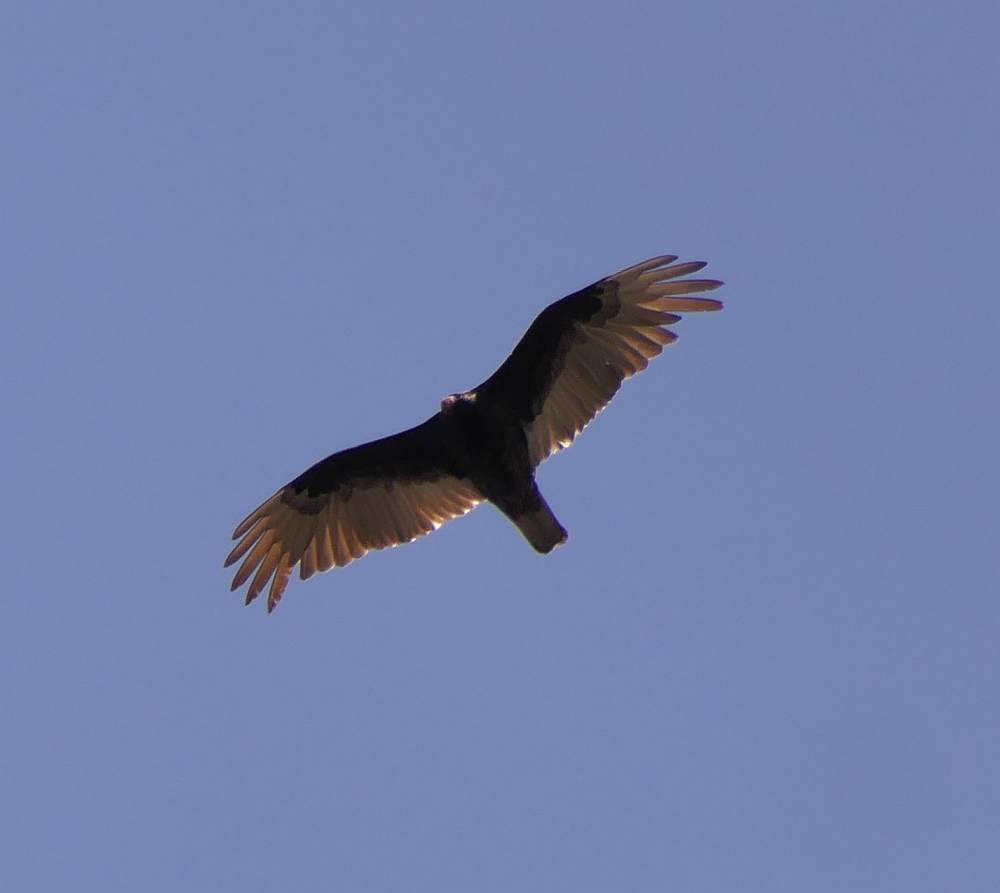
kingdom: Animalia
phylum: Chordata
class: Aves
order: Accipitriformes
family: Cathartidae
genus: Cathartes
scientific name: Cathartes aura
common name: Turkey vulture
